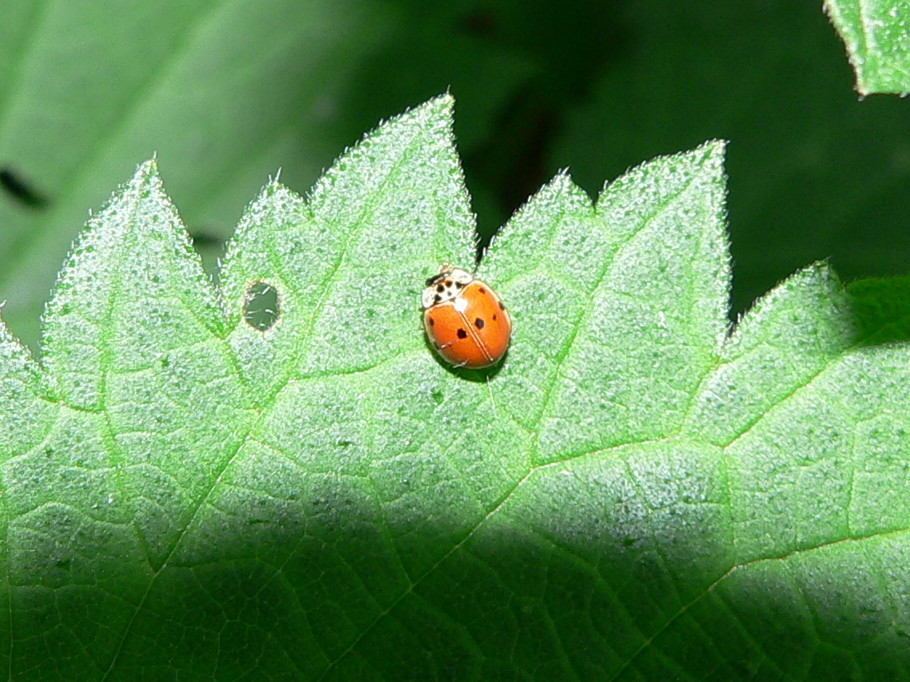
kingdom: Animalia
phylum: Arthropoda
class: Insecta
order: Coleoptera
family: Coccinellidae
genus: Adalia
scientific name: Adalia decempunctata
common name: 10-spot ladybird
